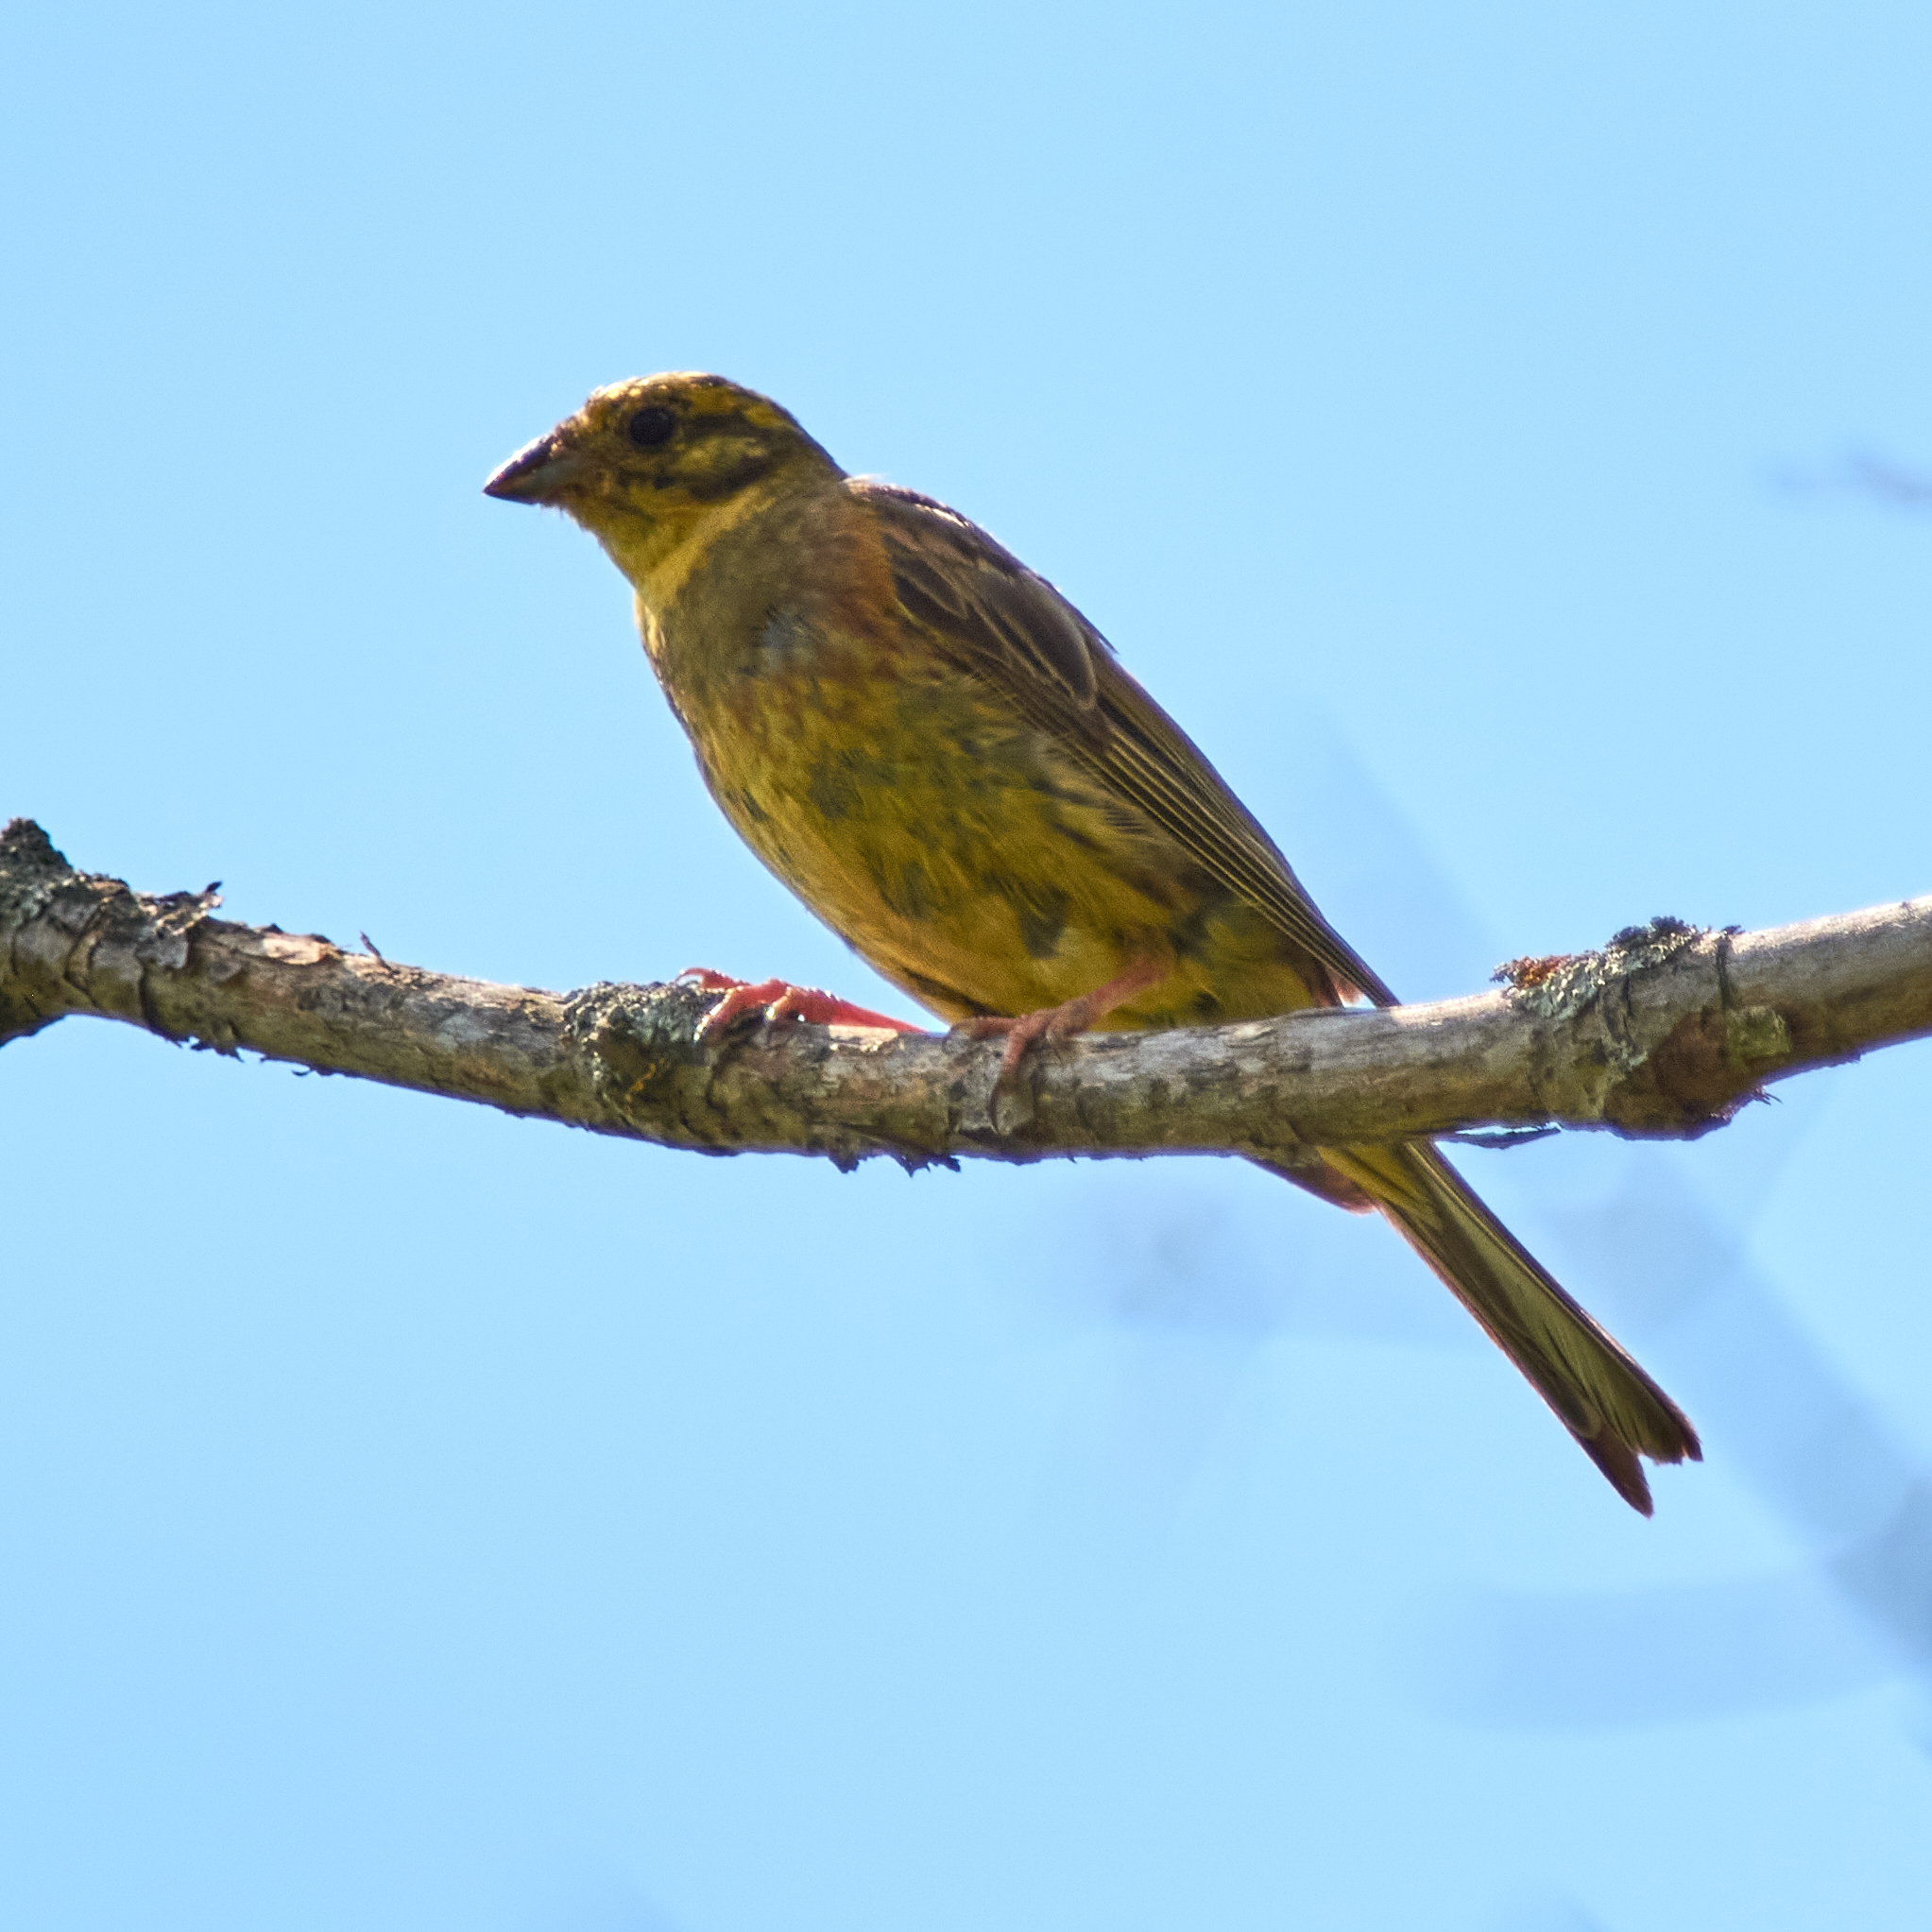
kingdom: Animalia
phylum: Chordata
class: Aves
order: Passeriformes
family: Emberizidae
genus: Emberiza
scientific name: Emberiza citrinella
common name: Yellowhammer
